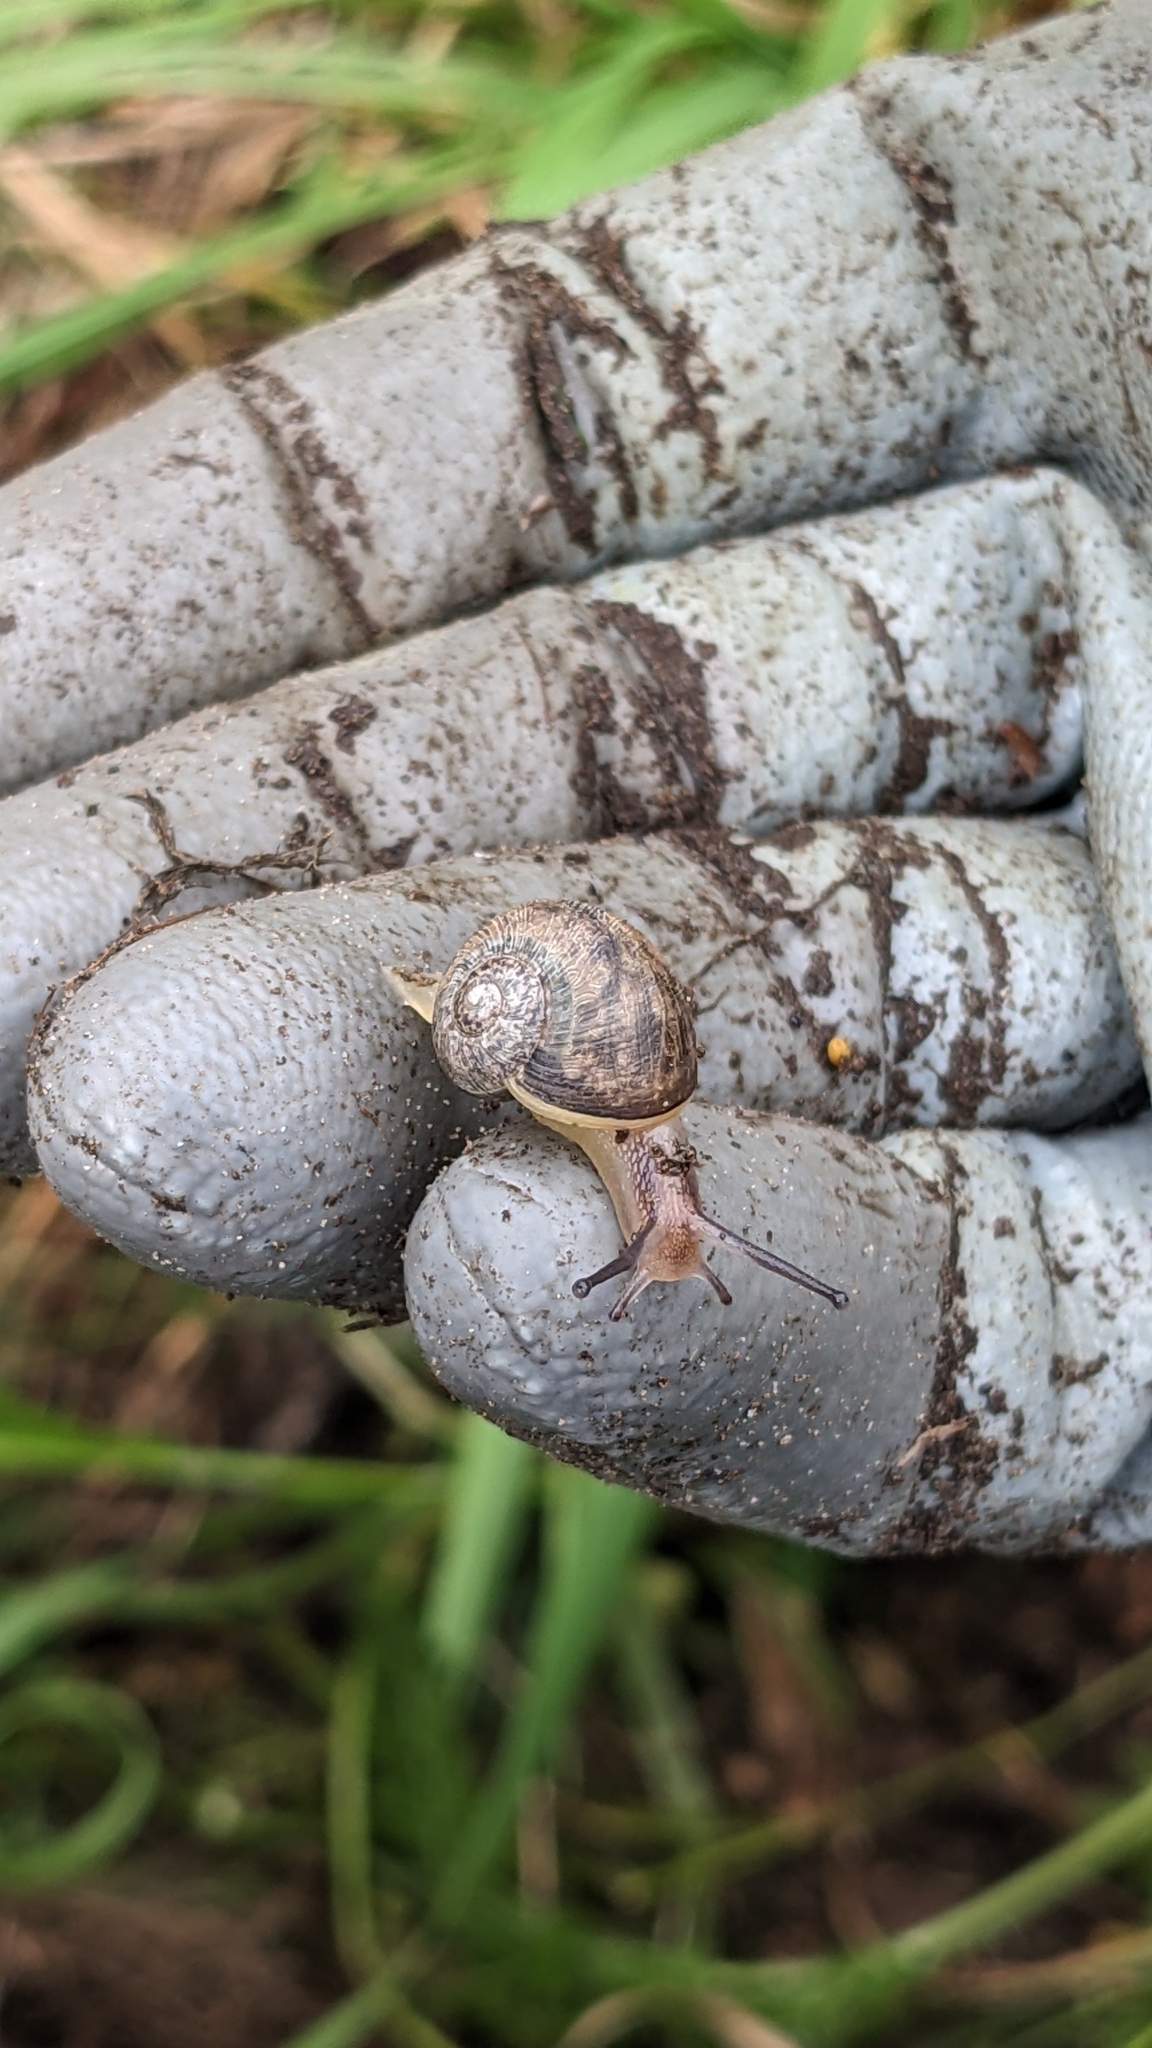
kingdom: Animalia
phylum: Mollusca
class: Gastropoda
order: Stylommatophora
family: Helicidae
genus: Cornu
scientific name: Cornu aspersum
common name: Brown garden snail
